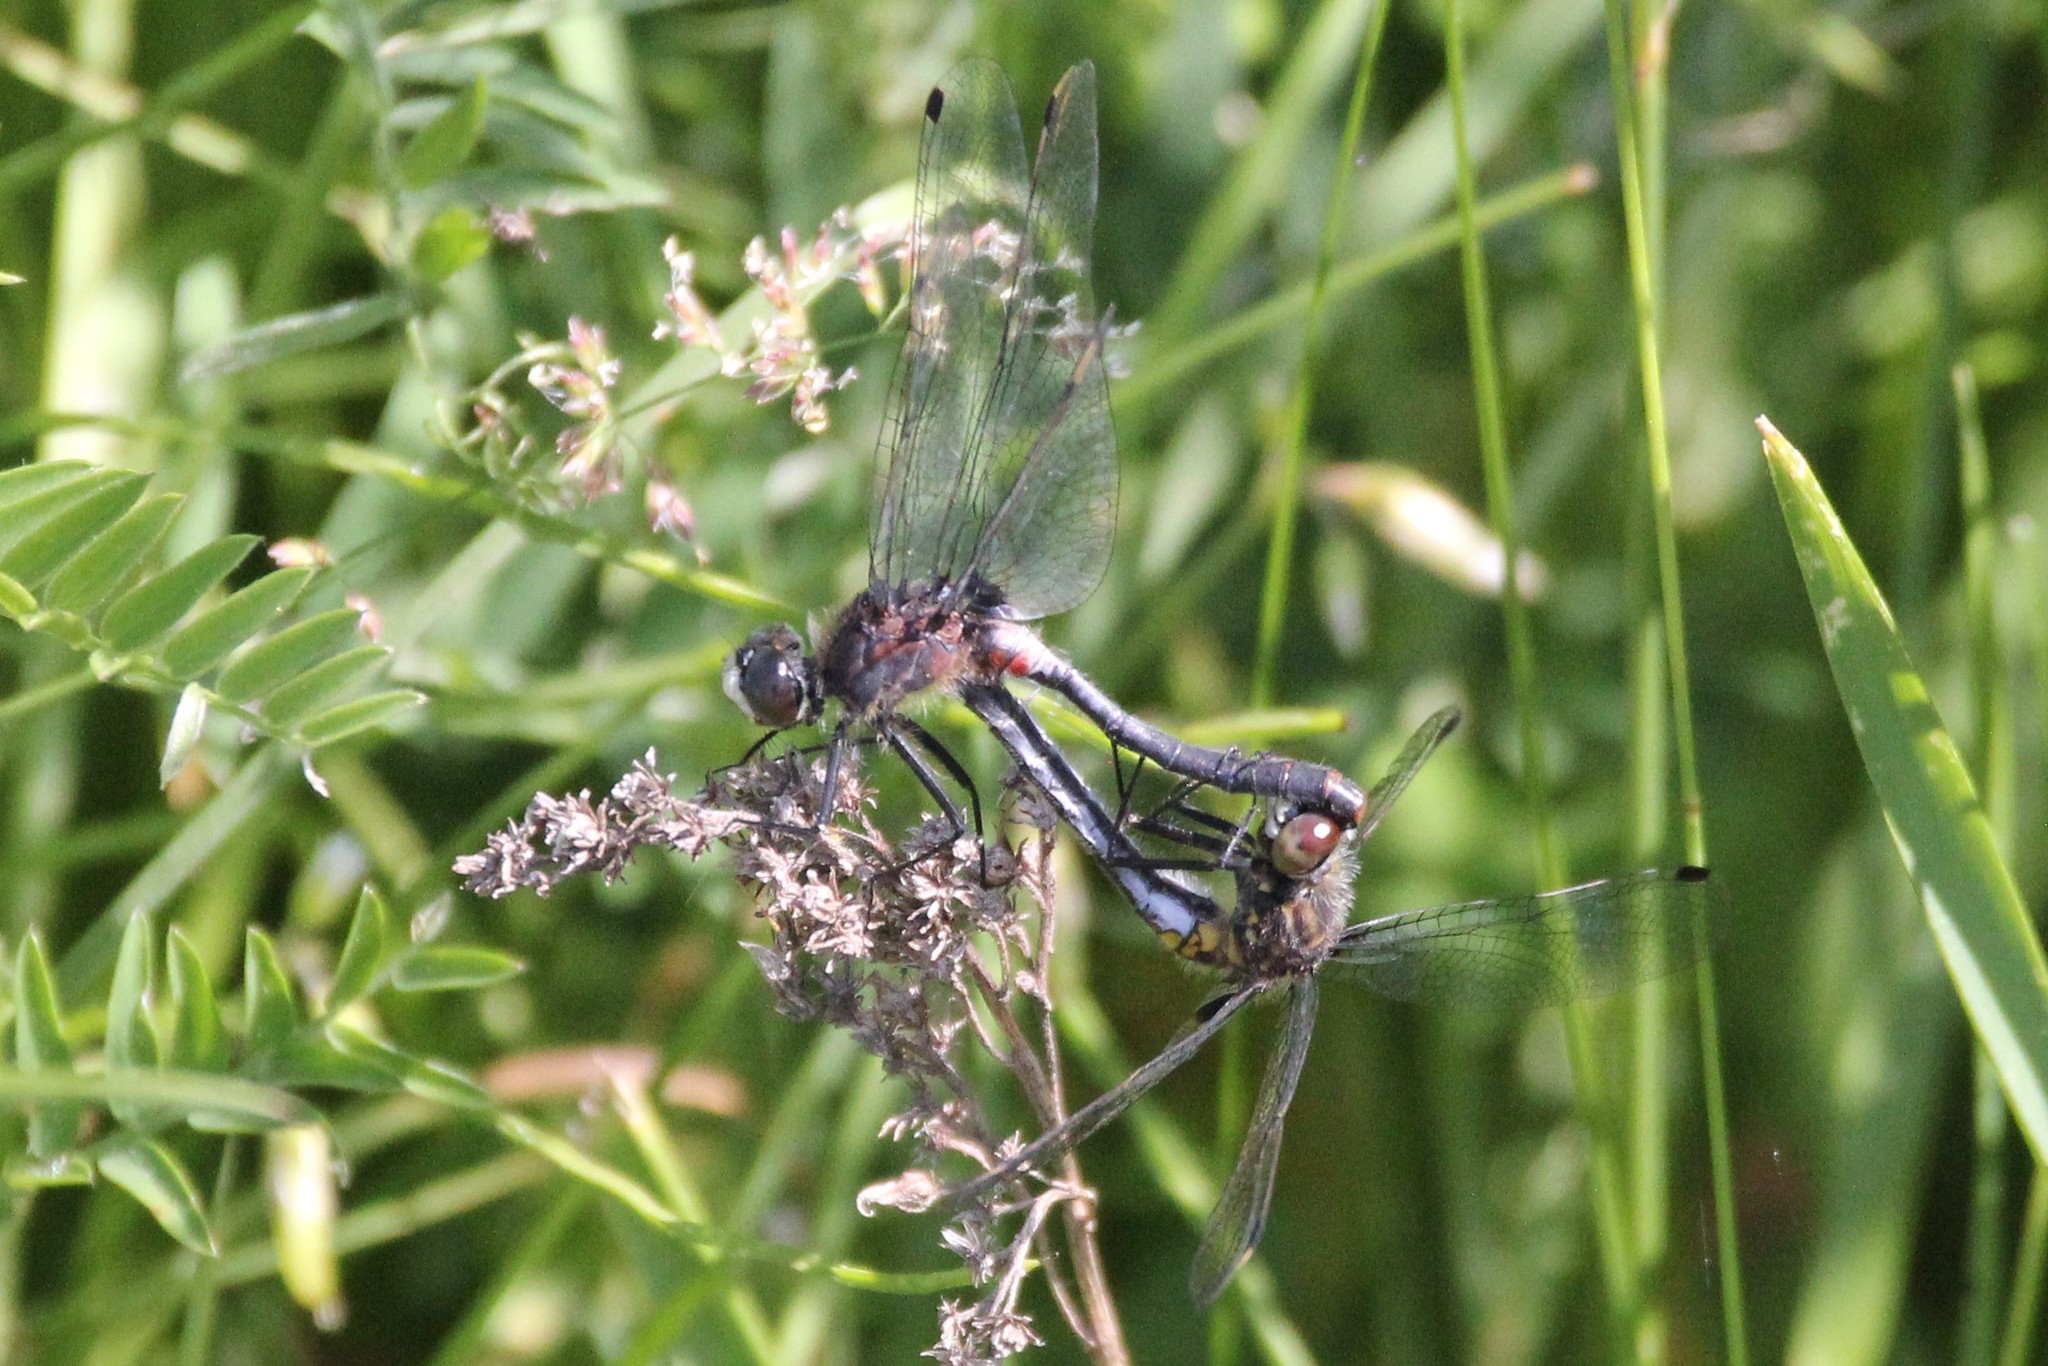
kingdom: Animalia
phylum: Arthropoda
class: Insecta
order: Odonata
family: Libellulidae
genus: Leucorrhinia
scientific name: Leucorrhinia proxima
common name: Belted whiteface
